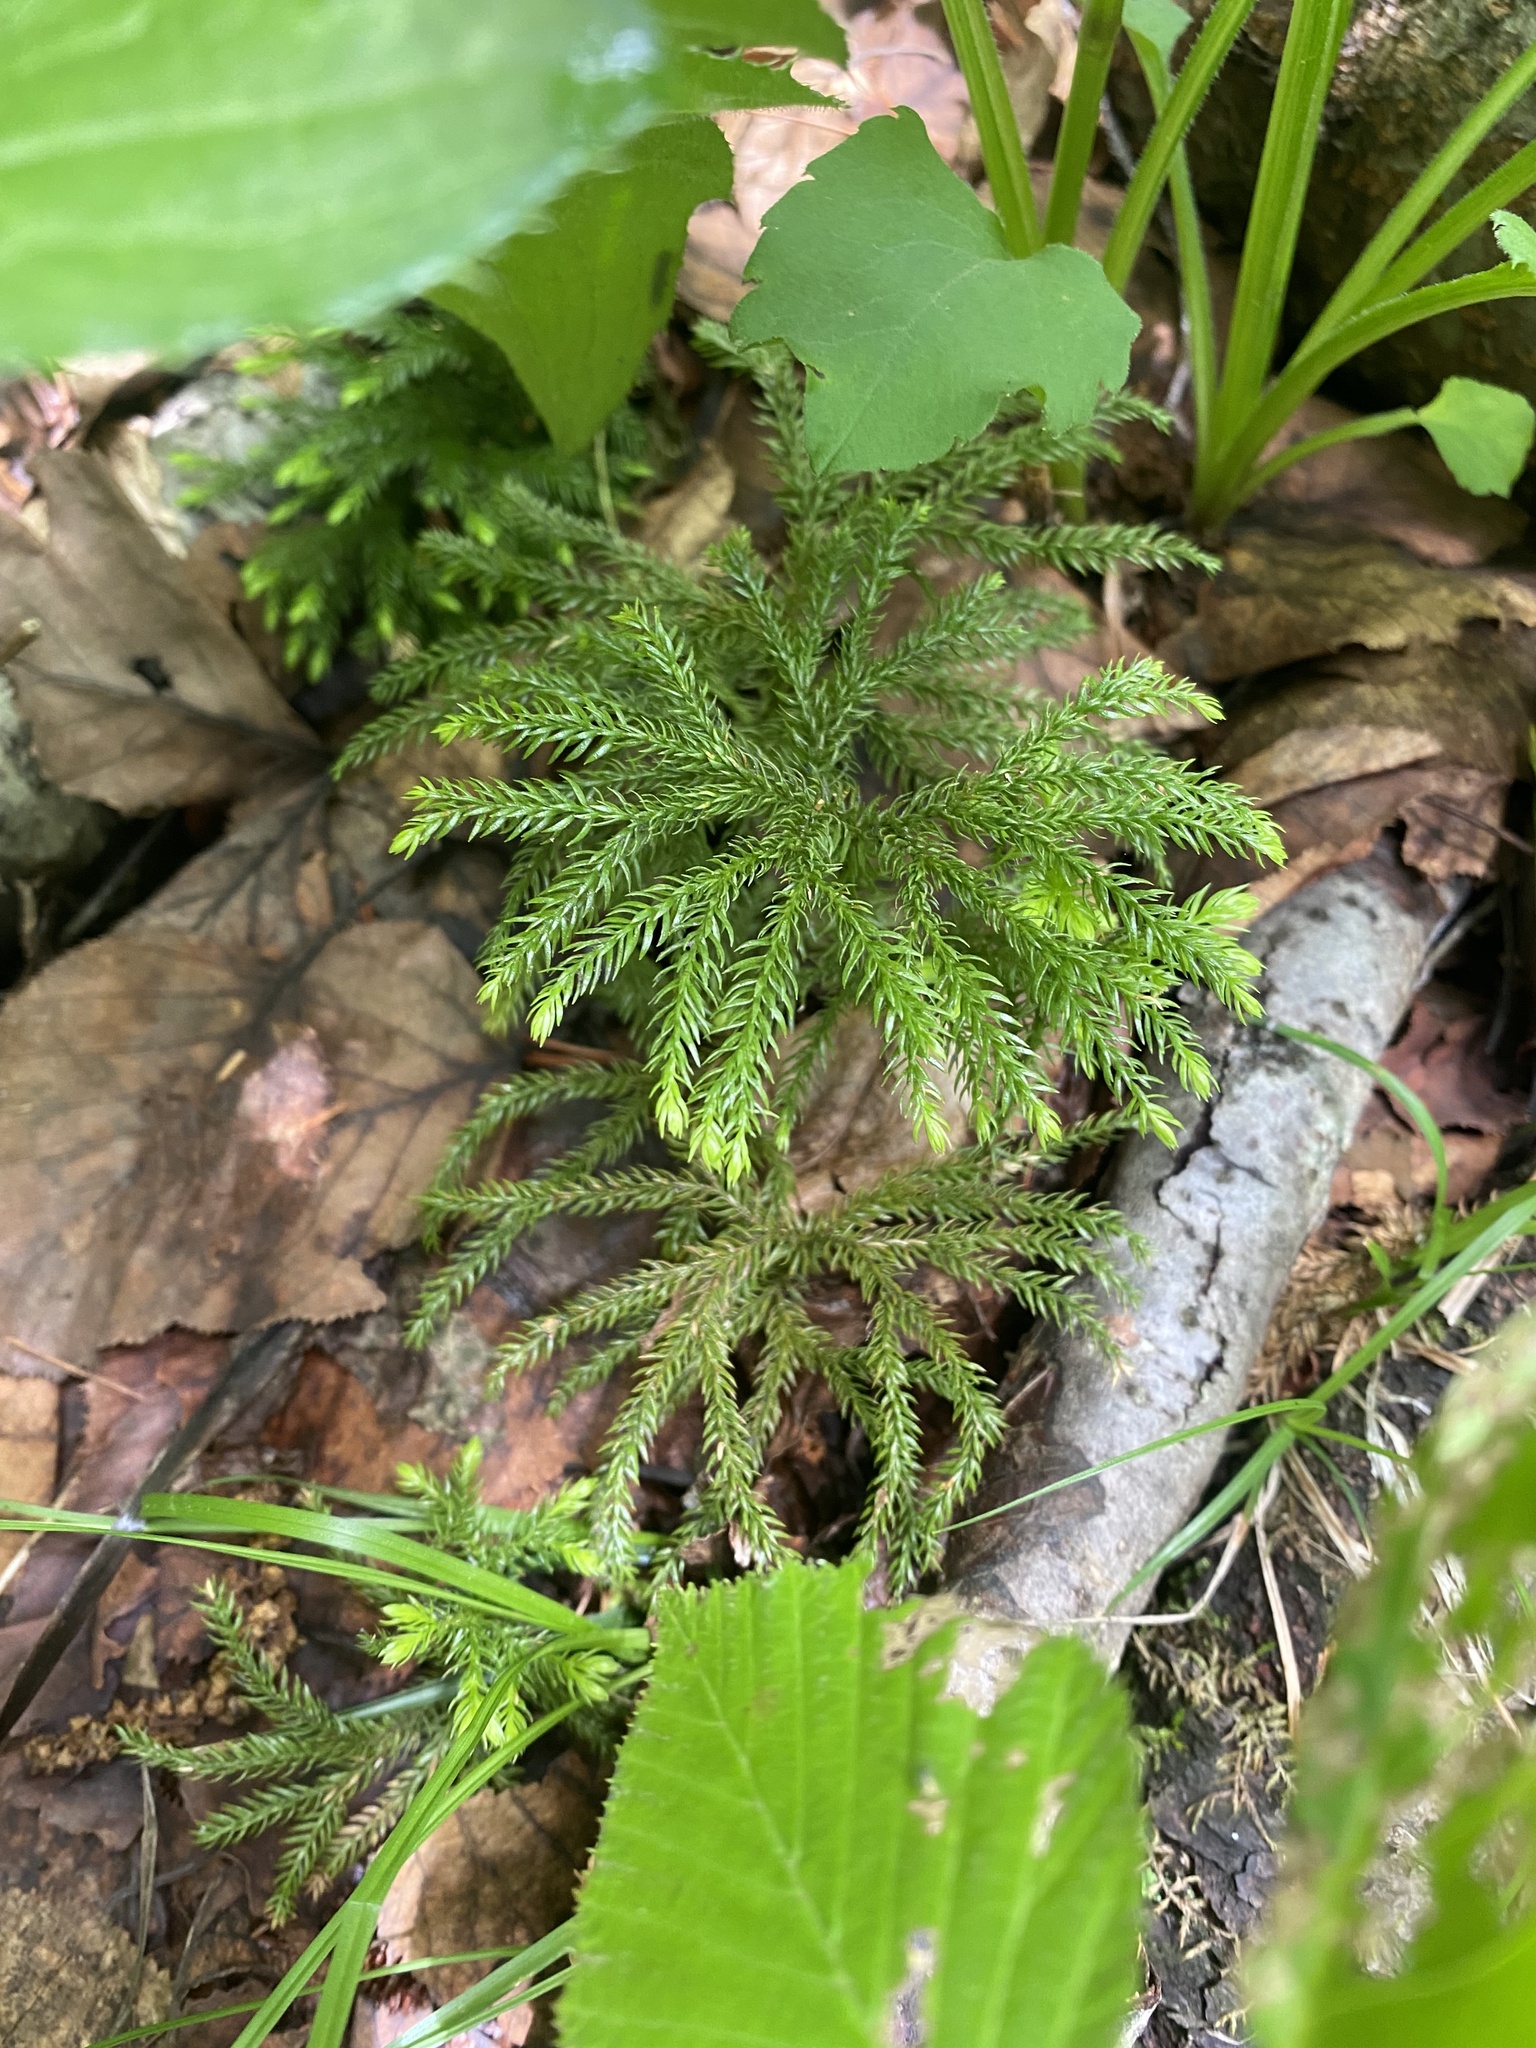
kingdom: Plantae
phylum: Tracheophyta
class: Lycopodiopsida
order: Lycopodiales
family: Lycopodiaceae
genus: Dendrolycopodium
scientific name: Dendrolycopodium dendroideum
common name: Northern tree-clubmoss
